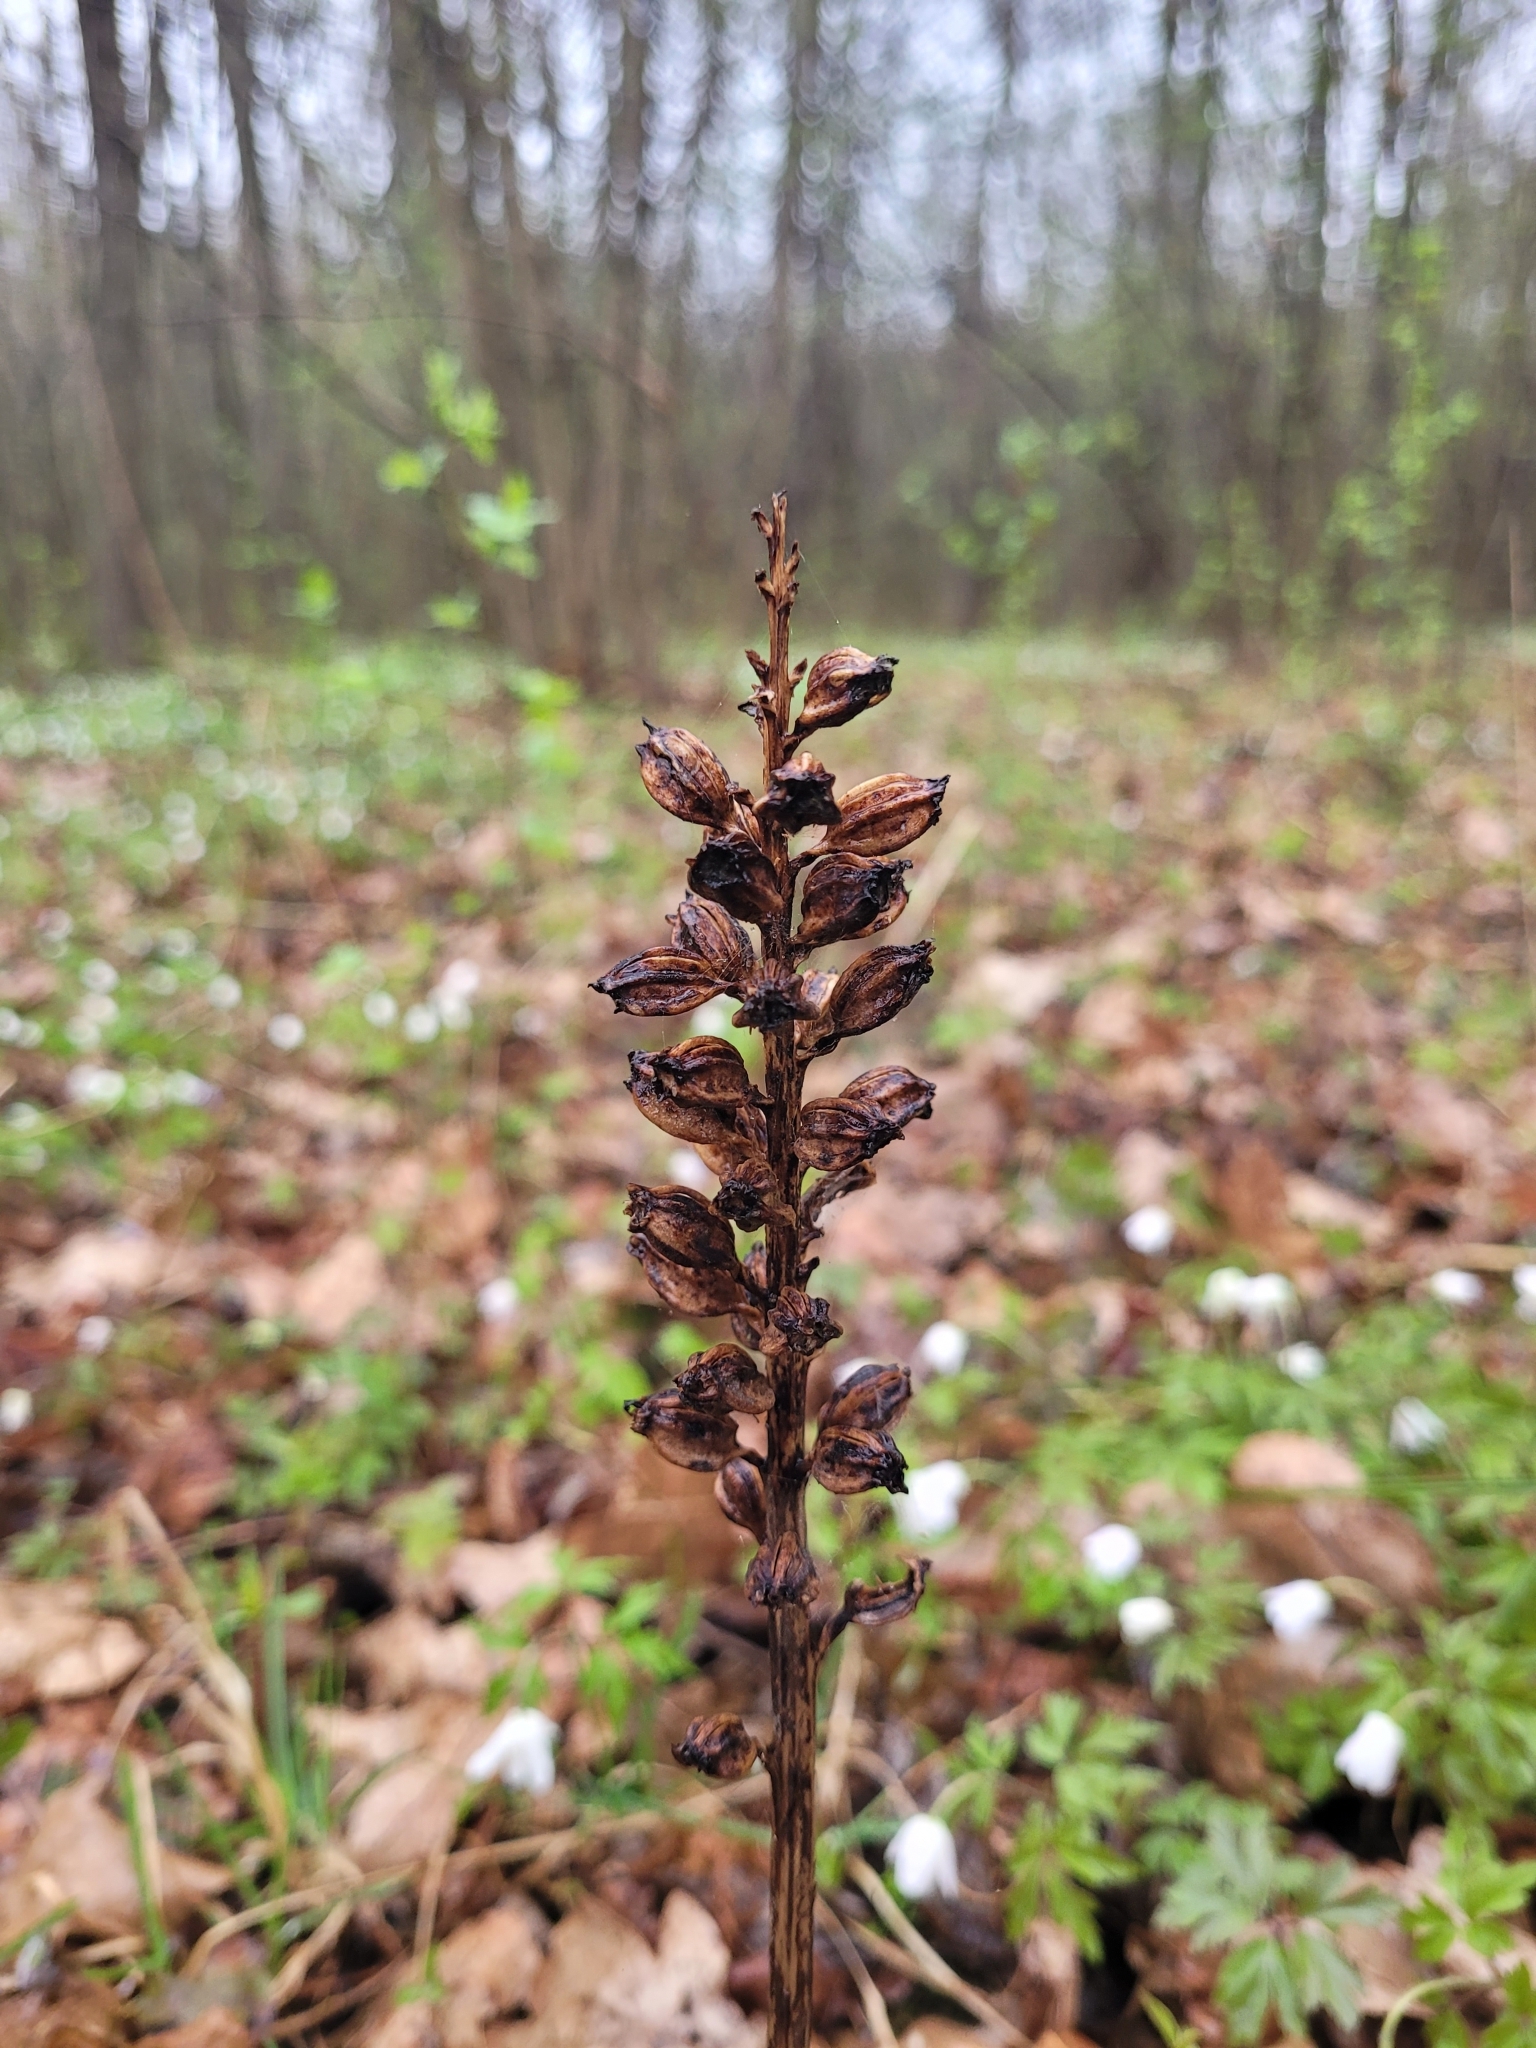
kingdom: Plantae
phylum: Tracheophyta
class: Liliopsida
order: Asparagales
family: Orchidaceae
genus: Neottia
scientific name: Neottia nidus-avis
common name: Bird's-nest orchid
